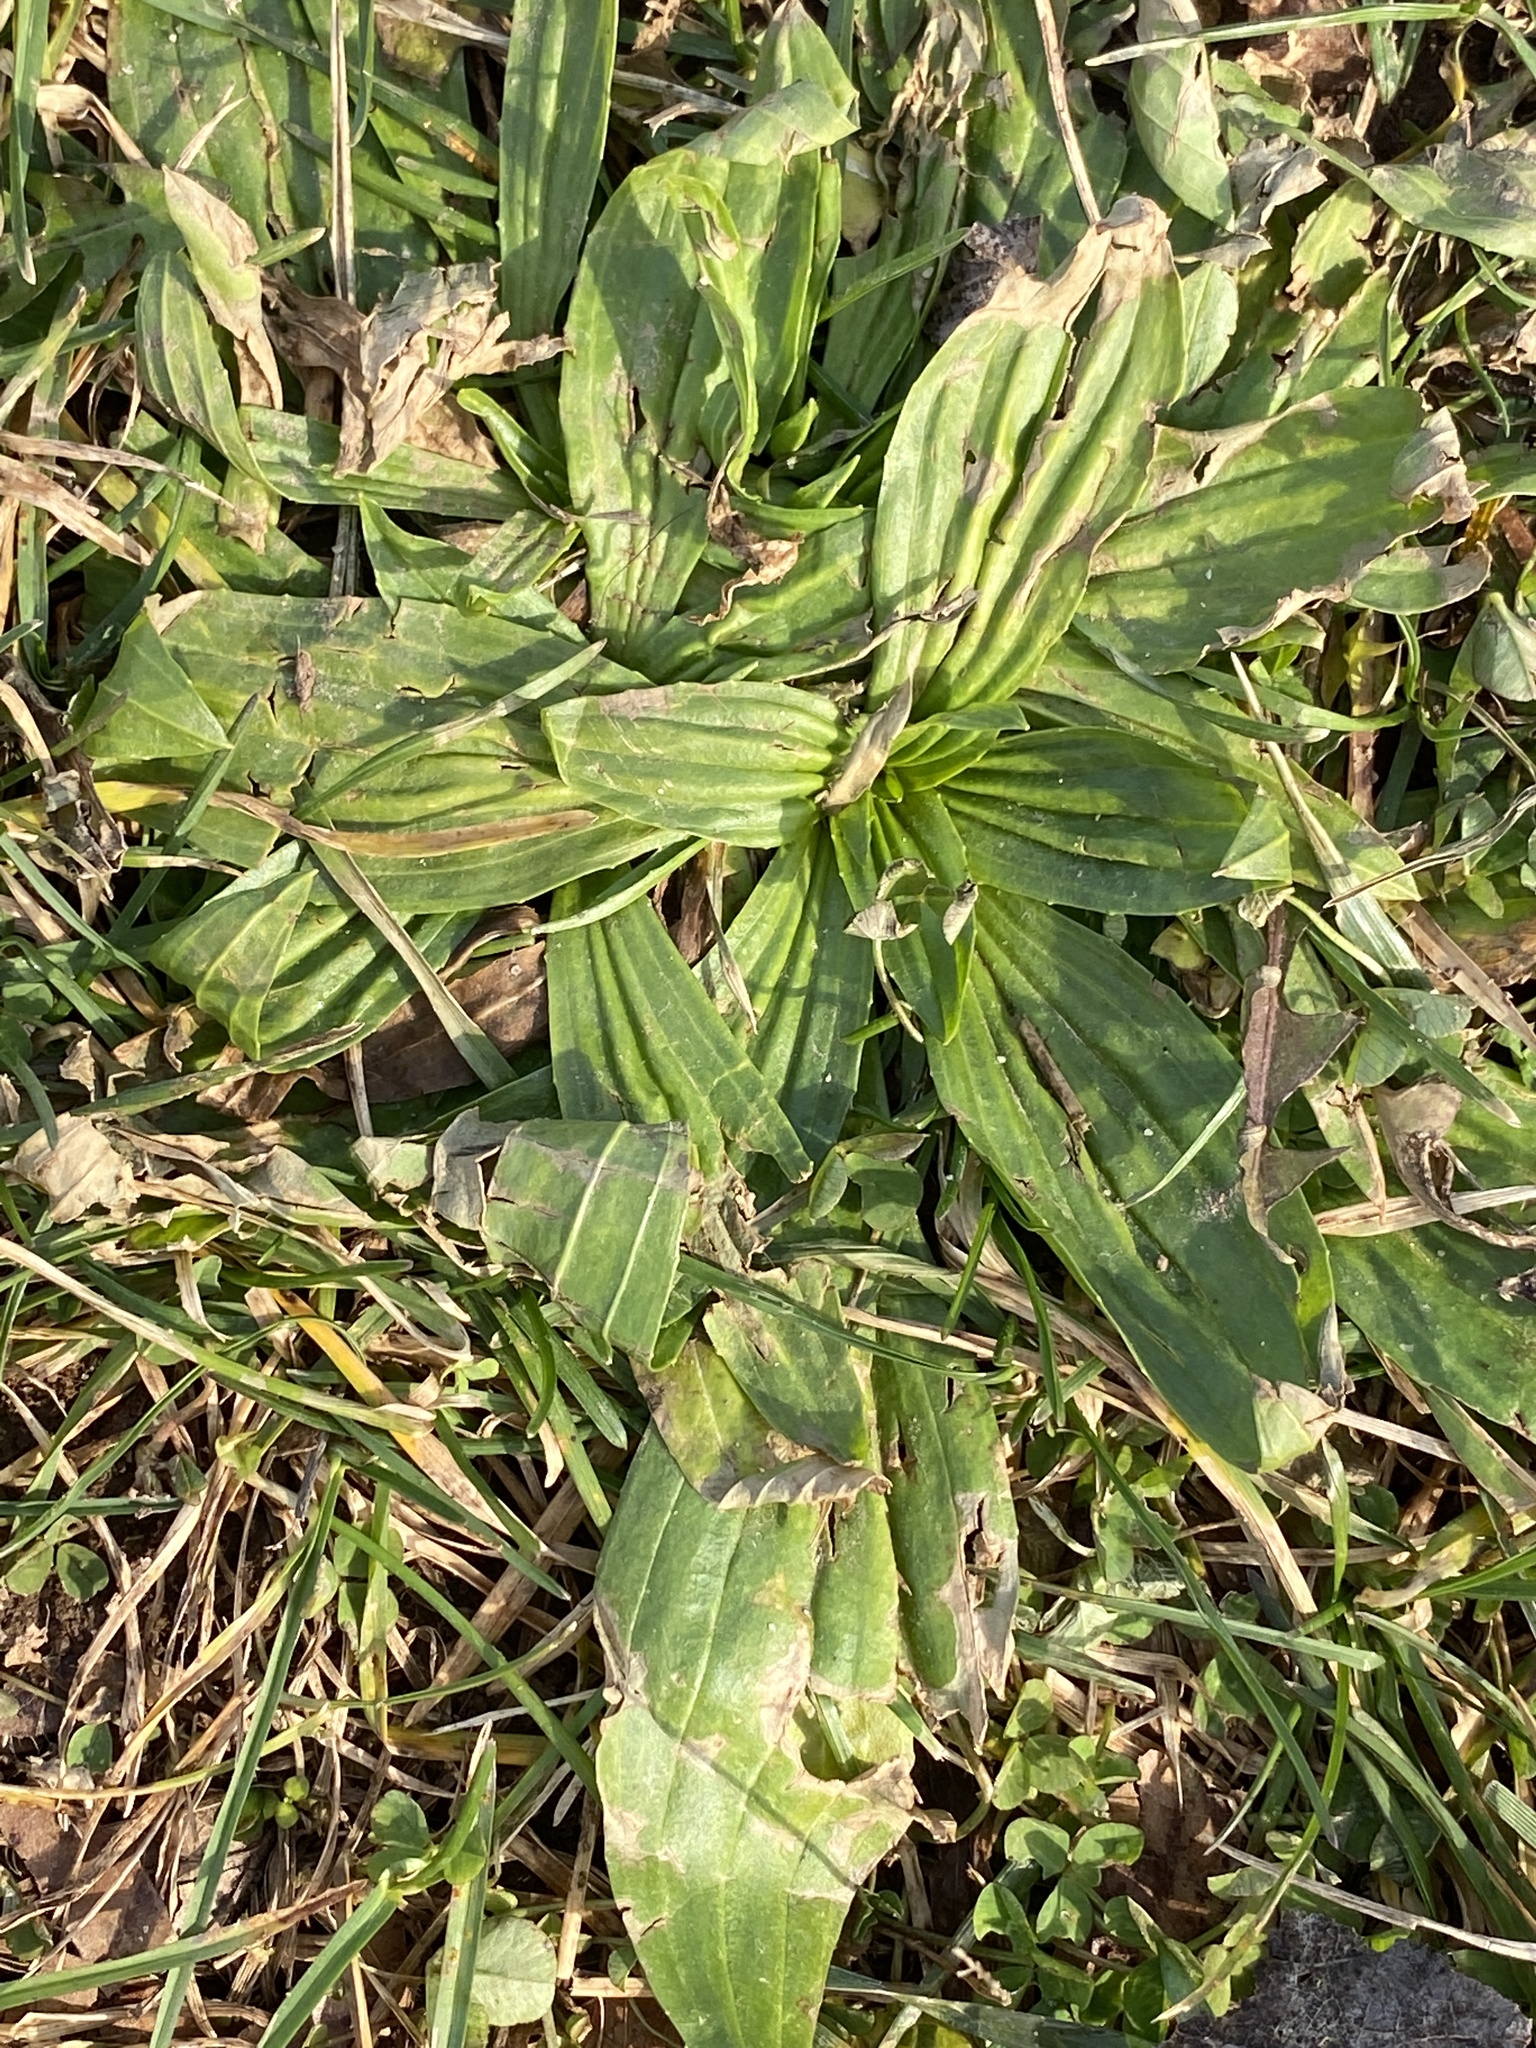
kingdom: Plantae
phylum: Tracheophyta
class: Magnoliopsida
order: Lamiales
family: Plantaginaceae
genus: Plantago
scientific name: Plantago lanceolata
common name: Ribwort plantain
